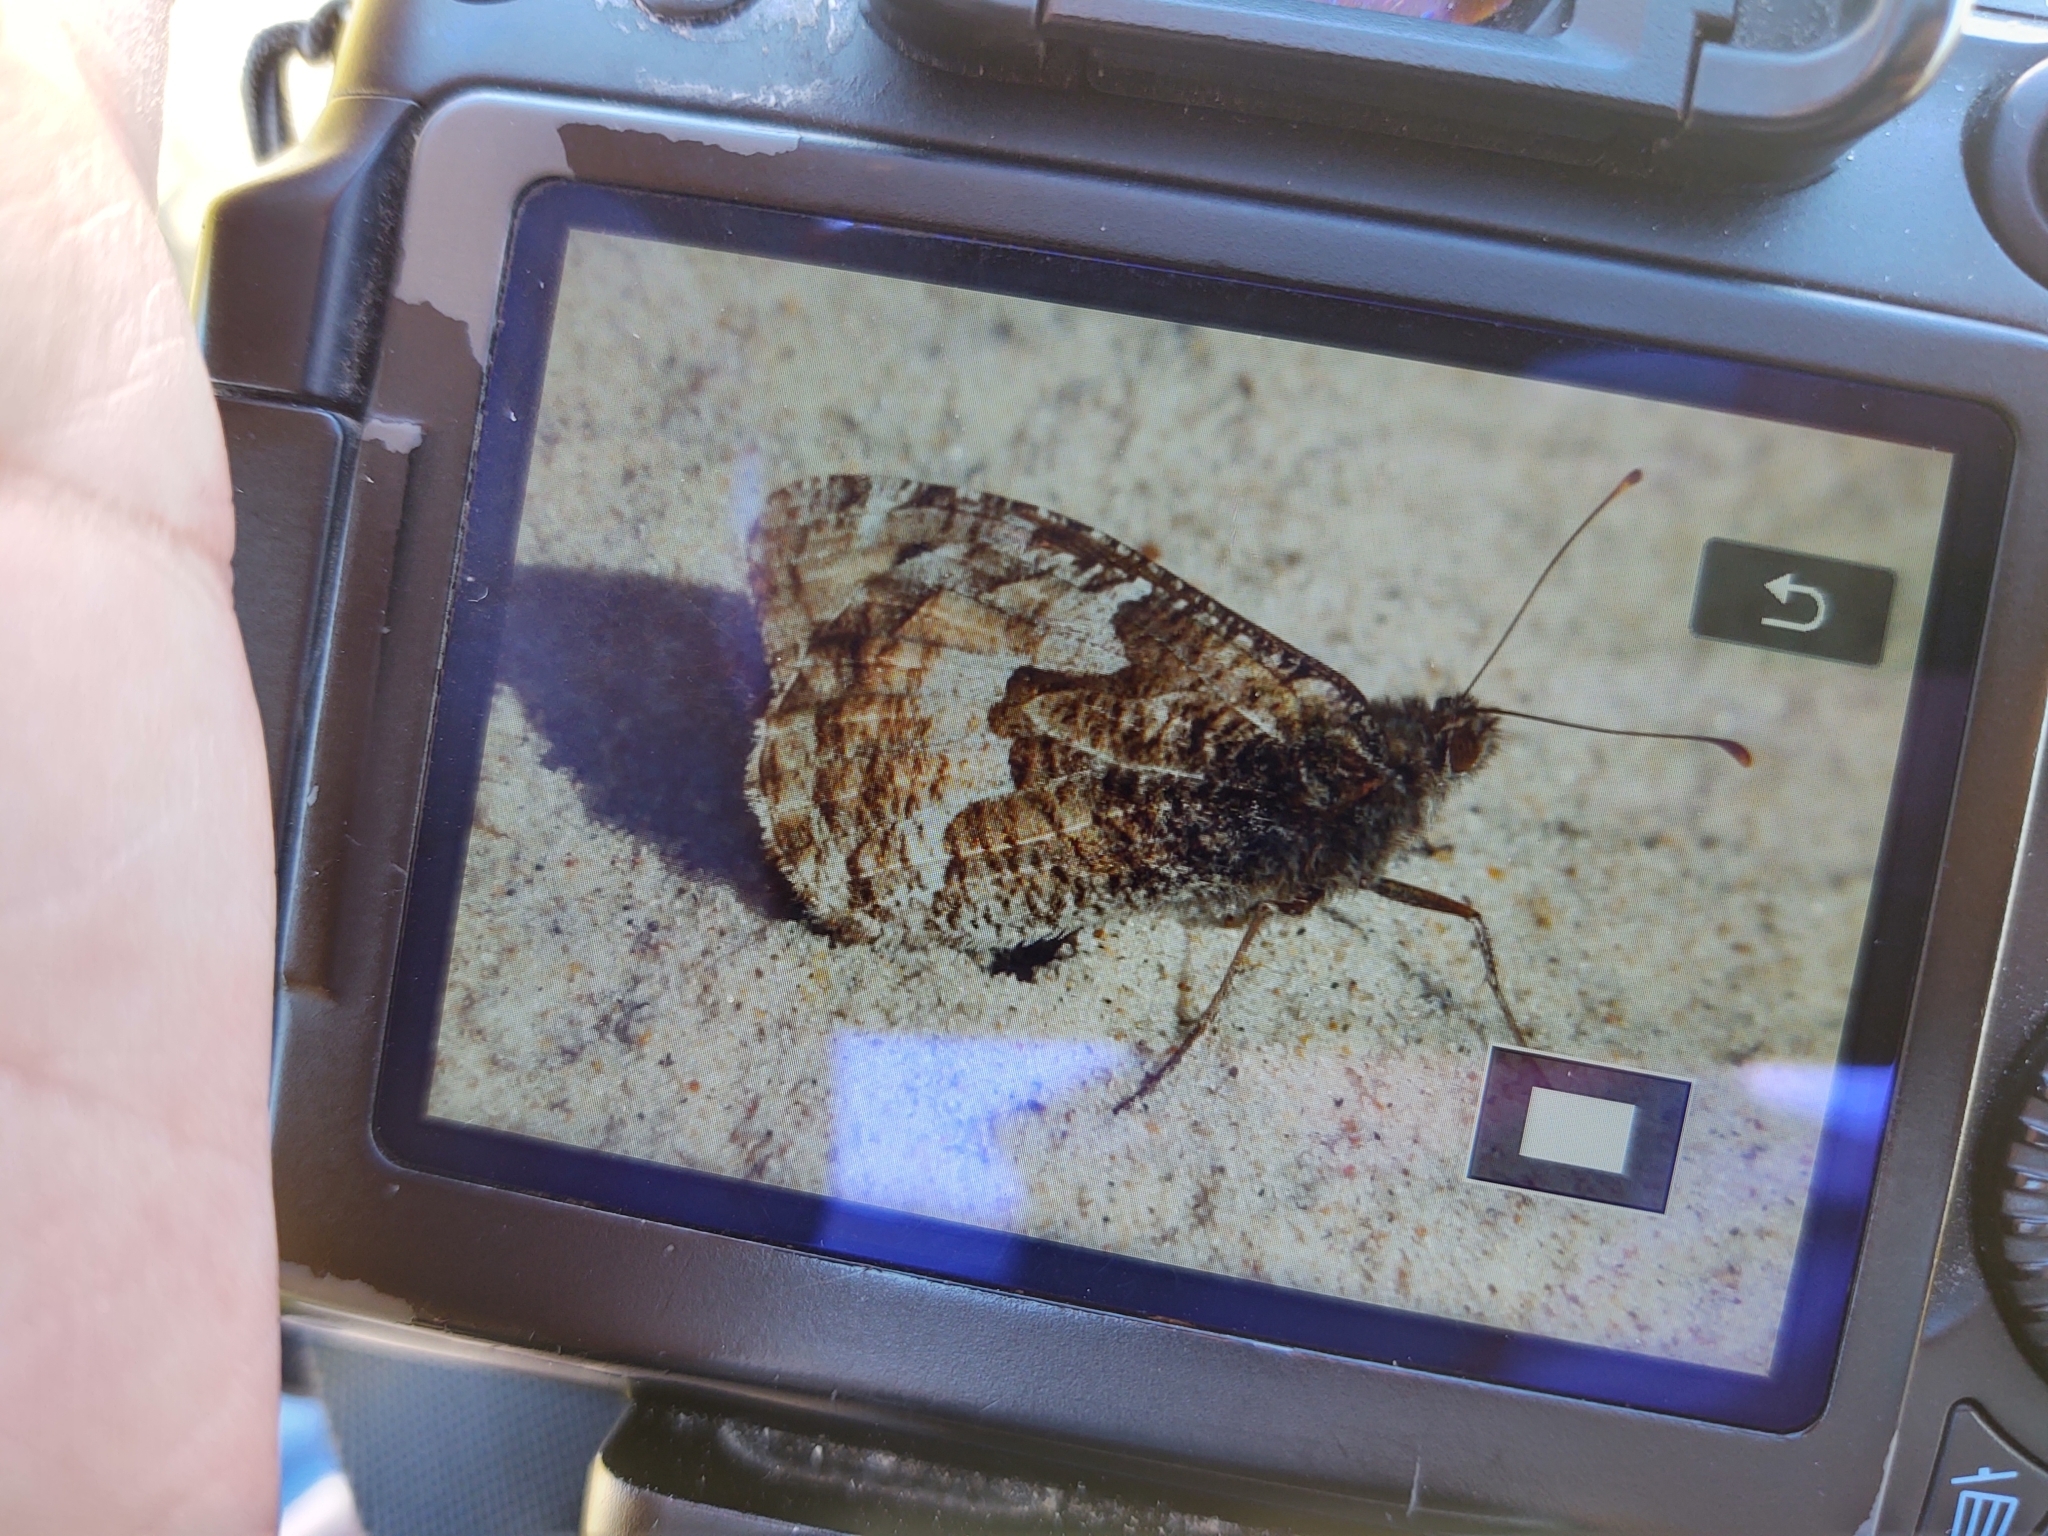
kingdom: Animalia
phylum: Arthropoda
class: Insecta
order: Lepidoptera
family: Nymphalidae
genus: Hipparchia
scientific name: Hipparchia semele
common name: Grayling
